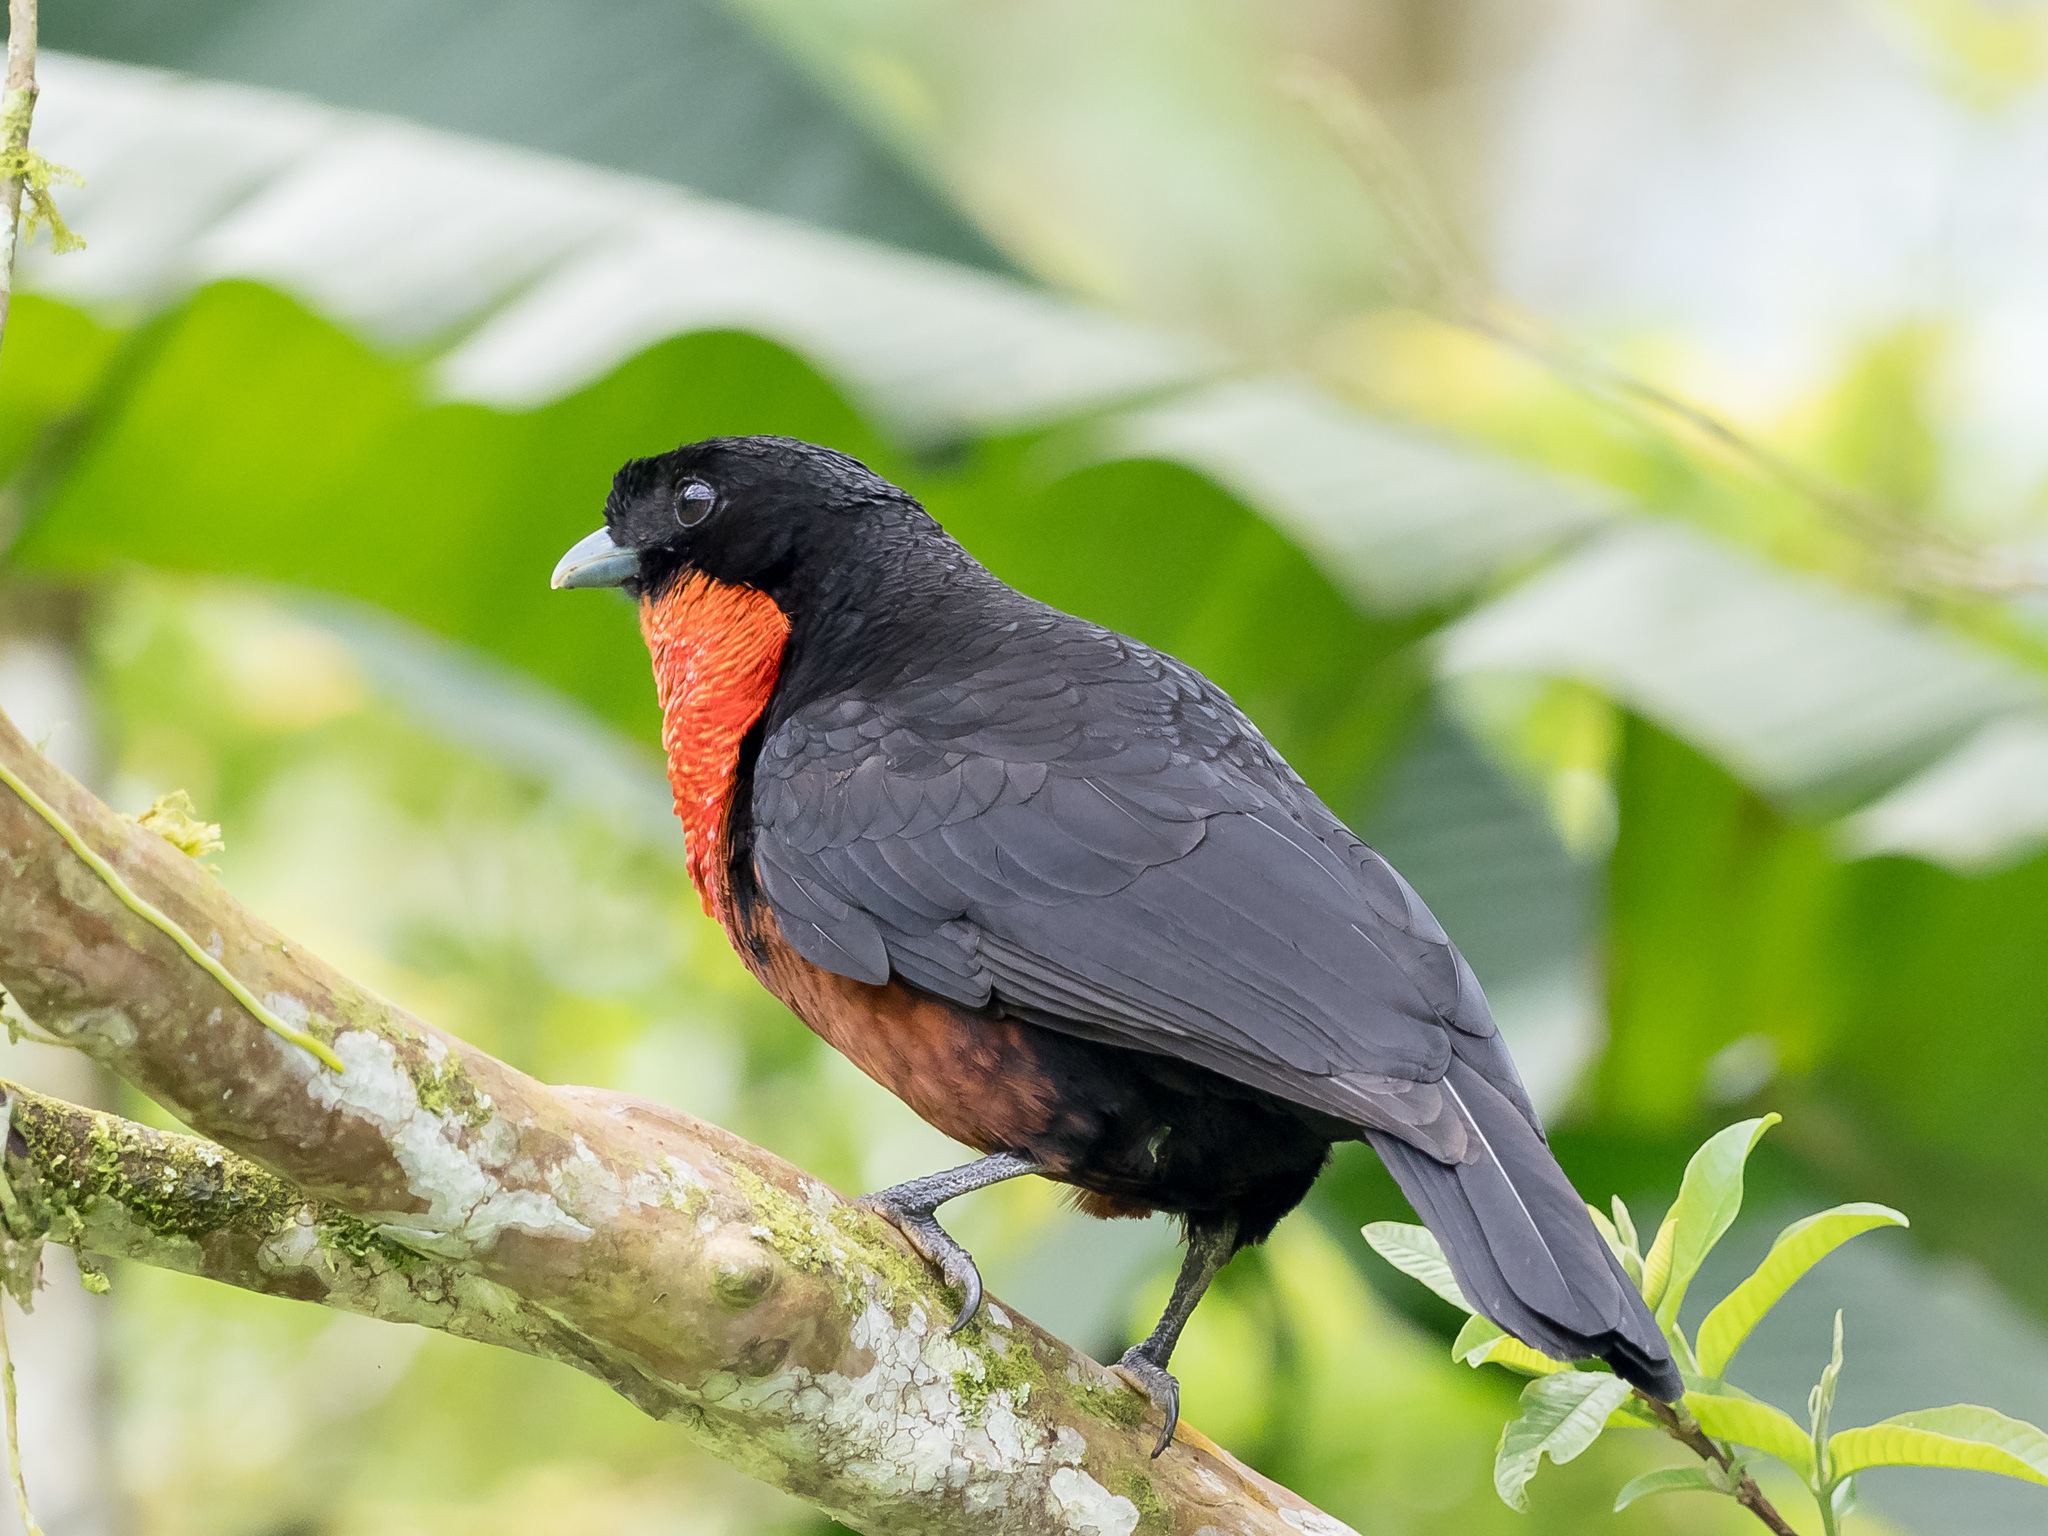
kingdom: Animalia
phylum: Chordata
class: Aves
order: Passeriformes
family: Cotingidae
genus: Pyroderus
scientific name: Pyroderus scutatus
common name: Red-ruffed fruitcrow
